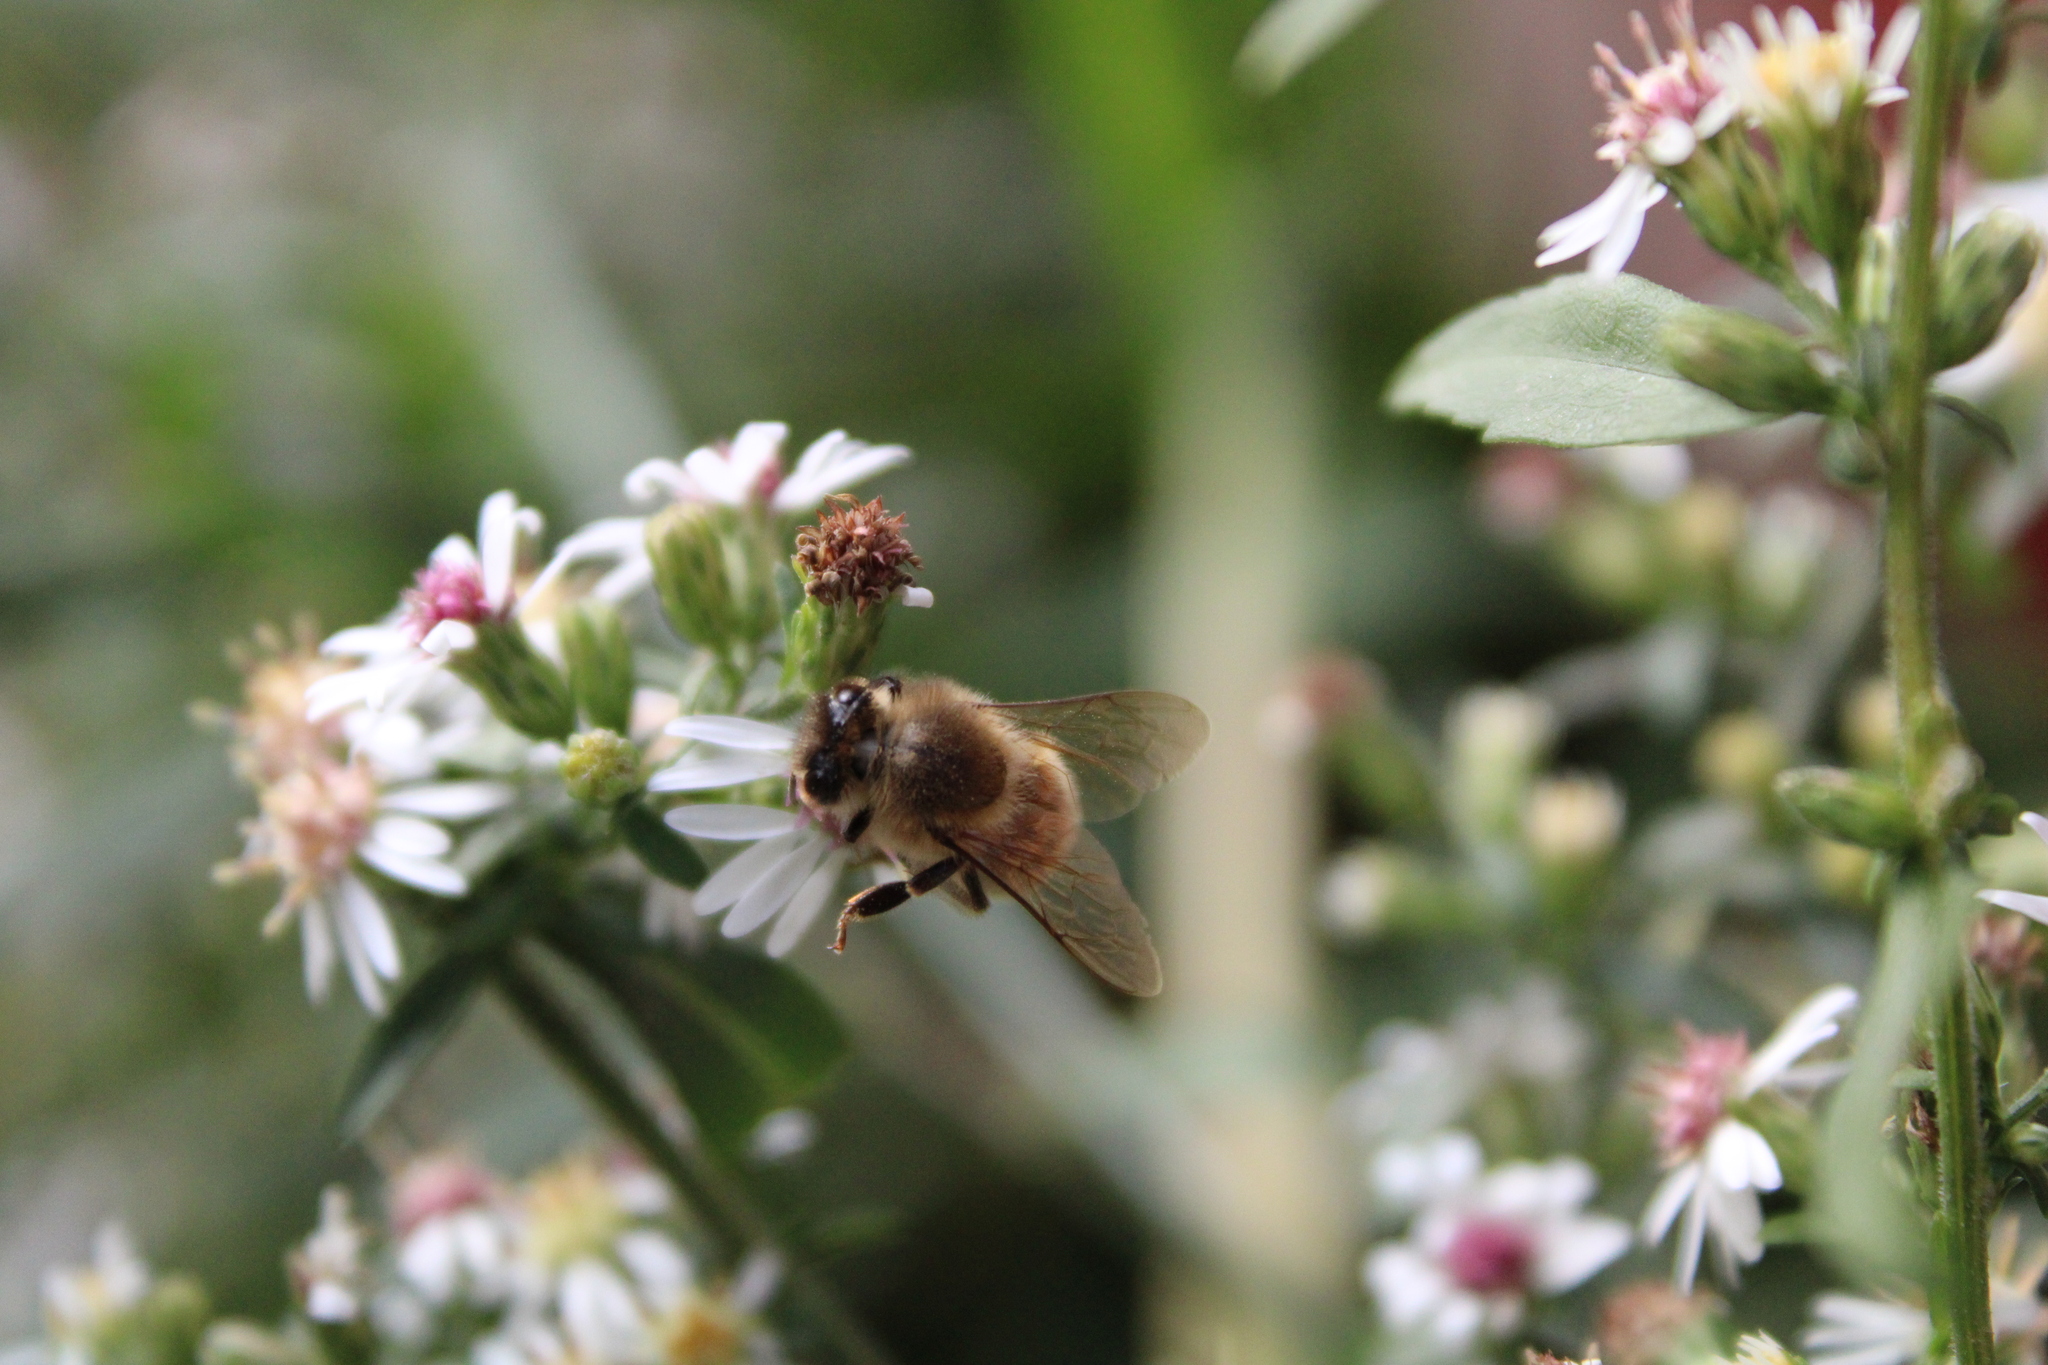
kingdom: Animalia
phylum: Arthropoda
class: Insecta
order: Hymenoptera
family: Apidae
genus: Apis
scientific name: Apis mellifera
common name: Honey bee
